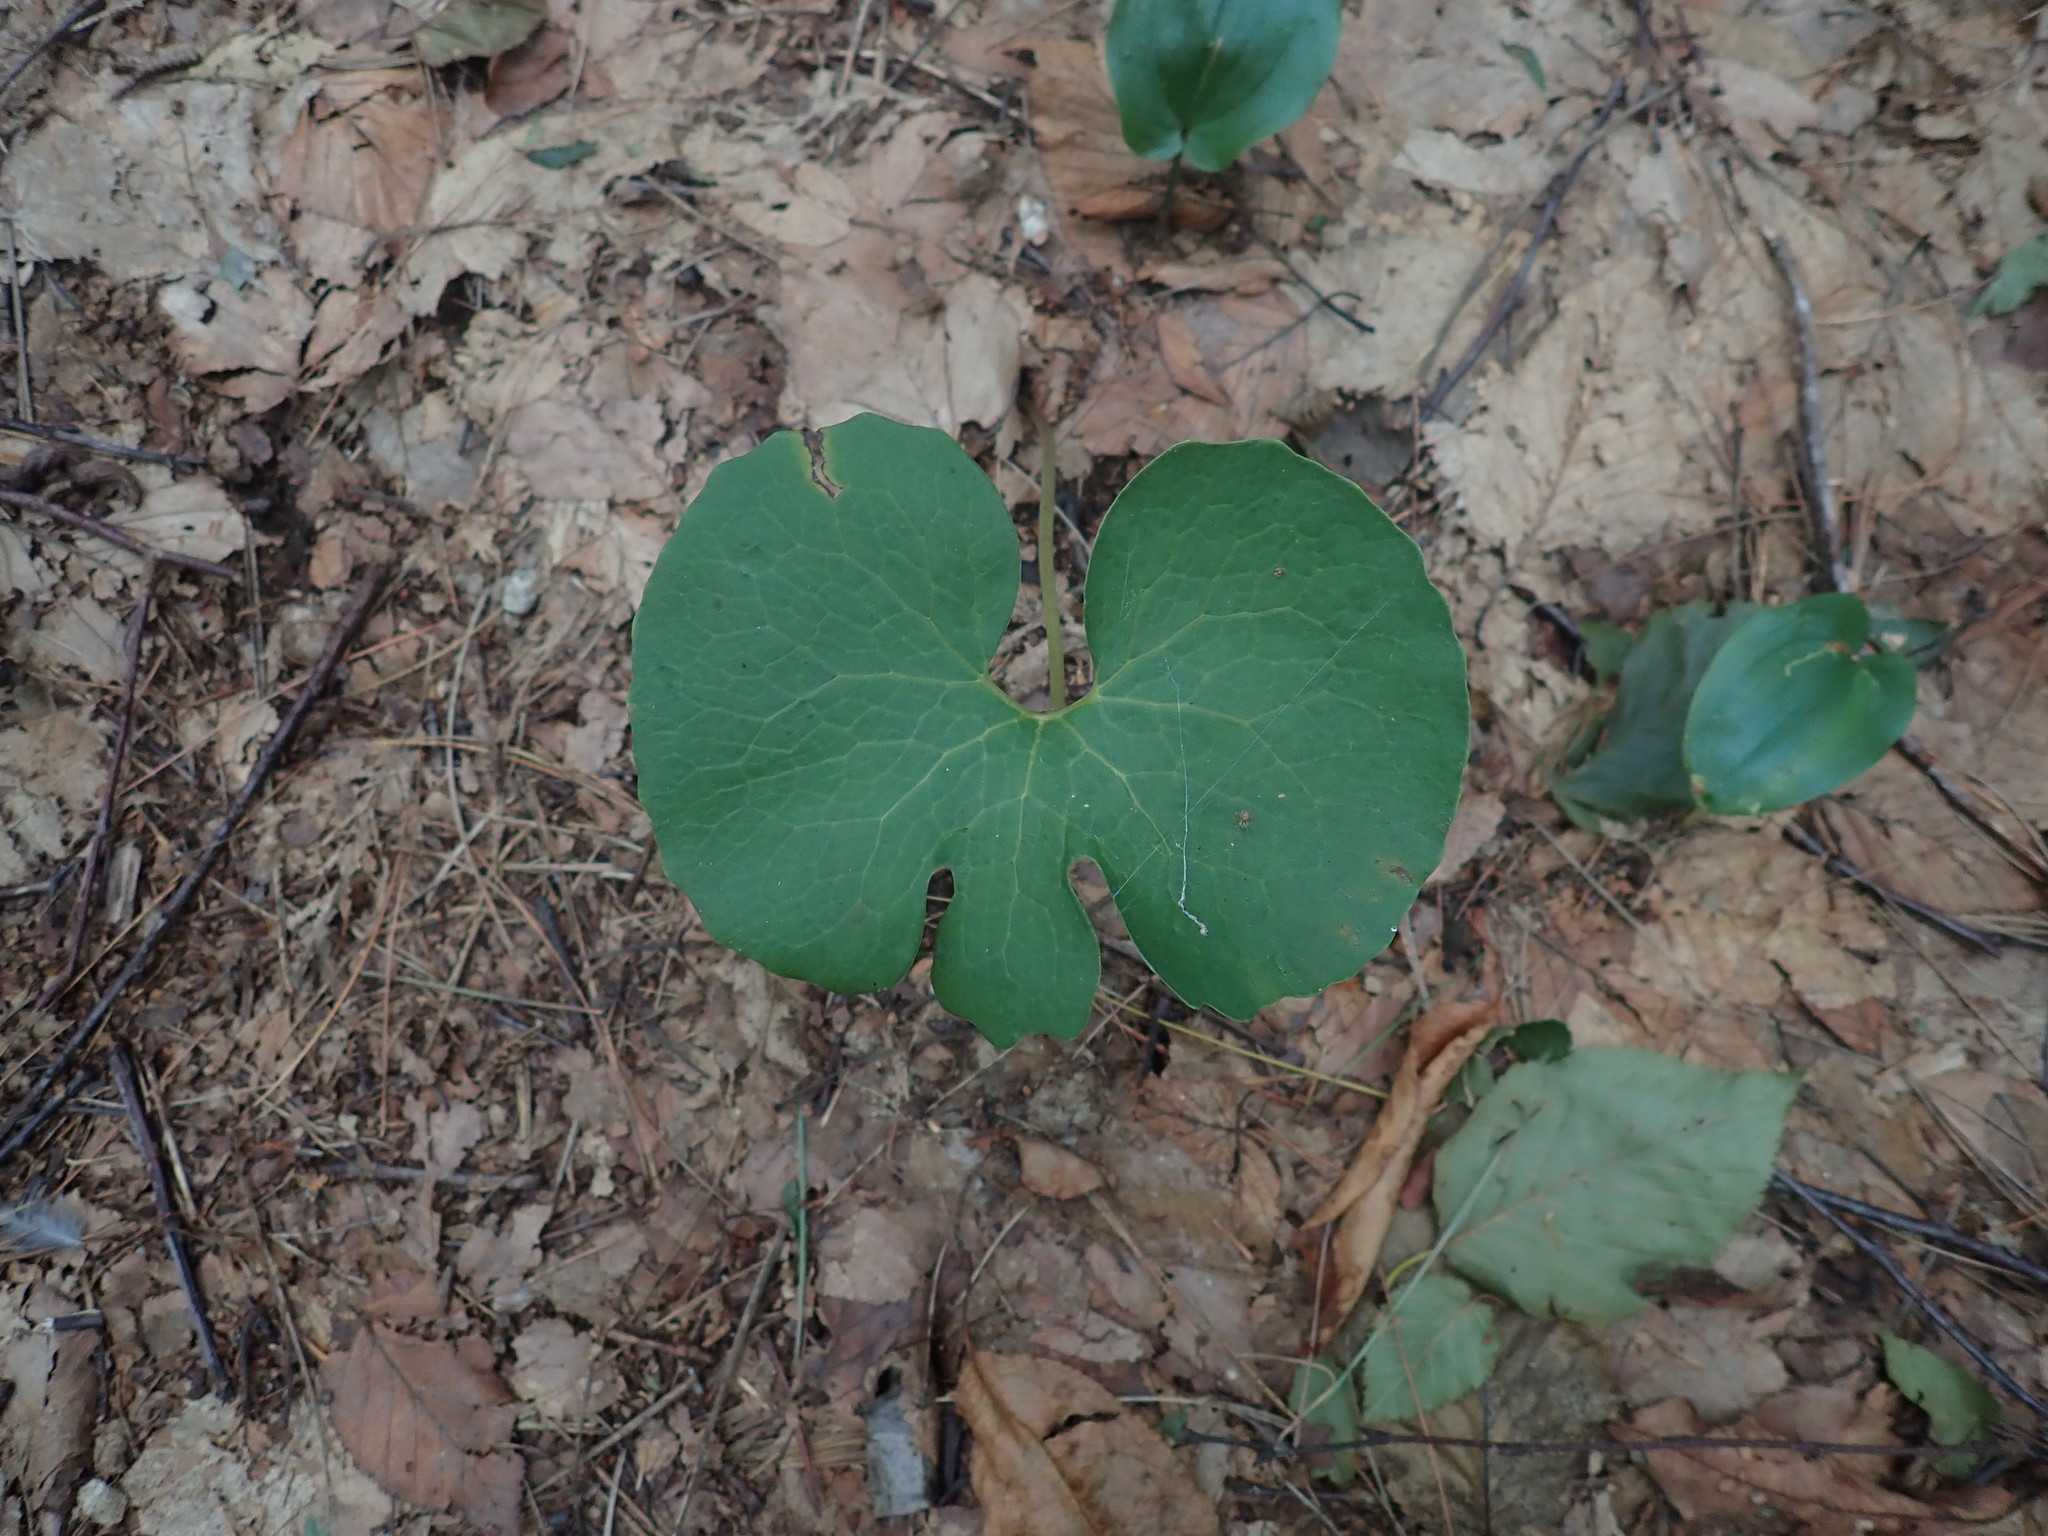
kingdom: Plantae
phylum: Tracheophyta
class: Magnoliopsida
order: Ranunculales
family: Papaveraceae
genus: Sanguinaria
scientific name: Sanguinaria canadensis
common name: Bloodroot
